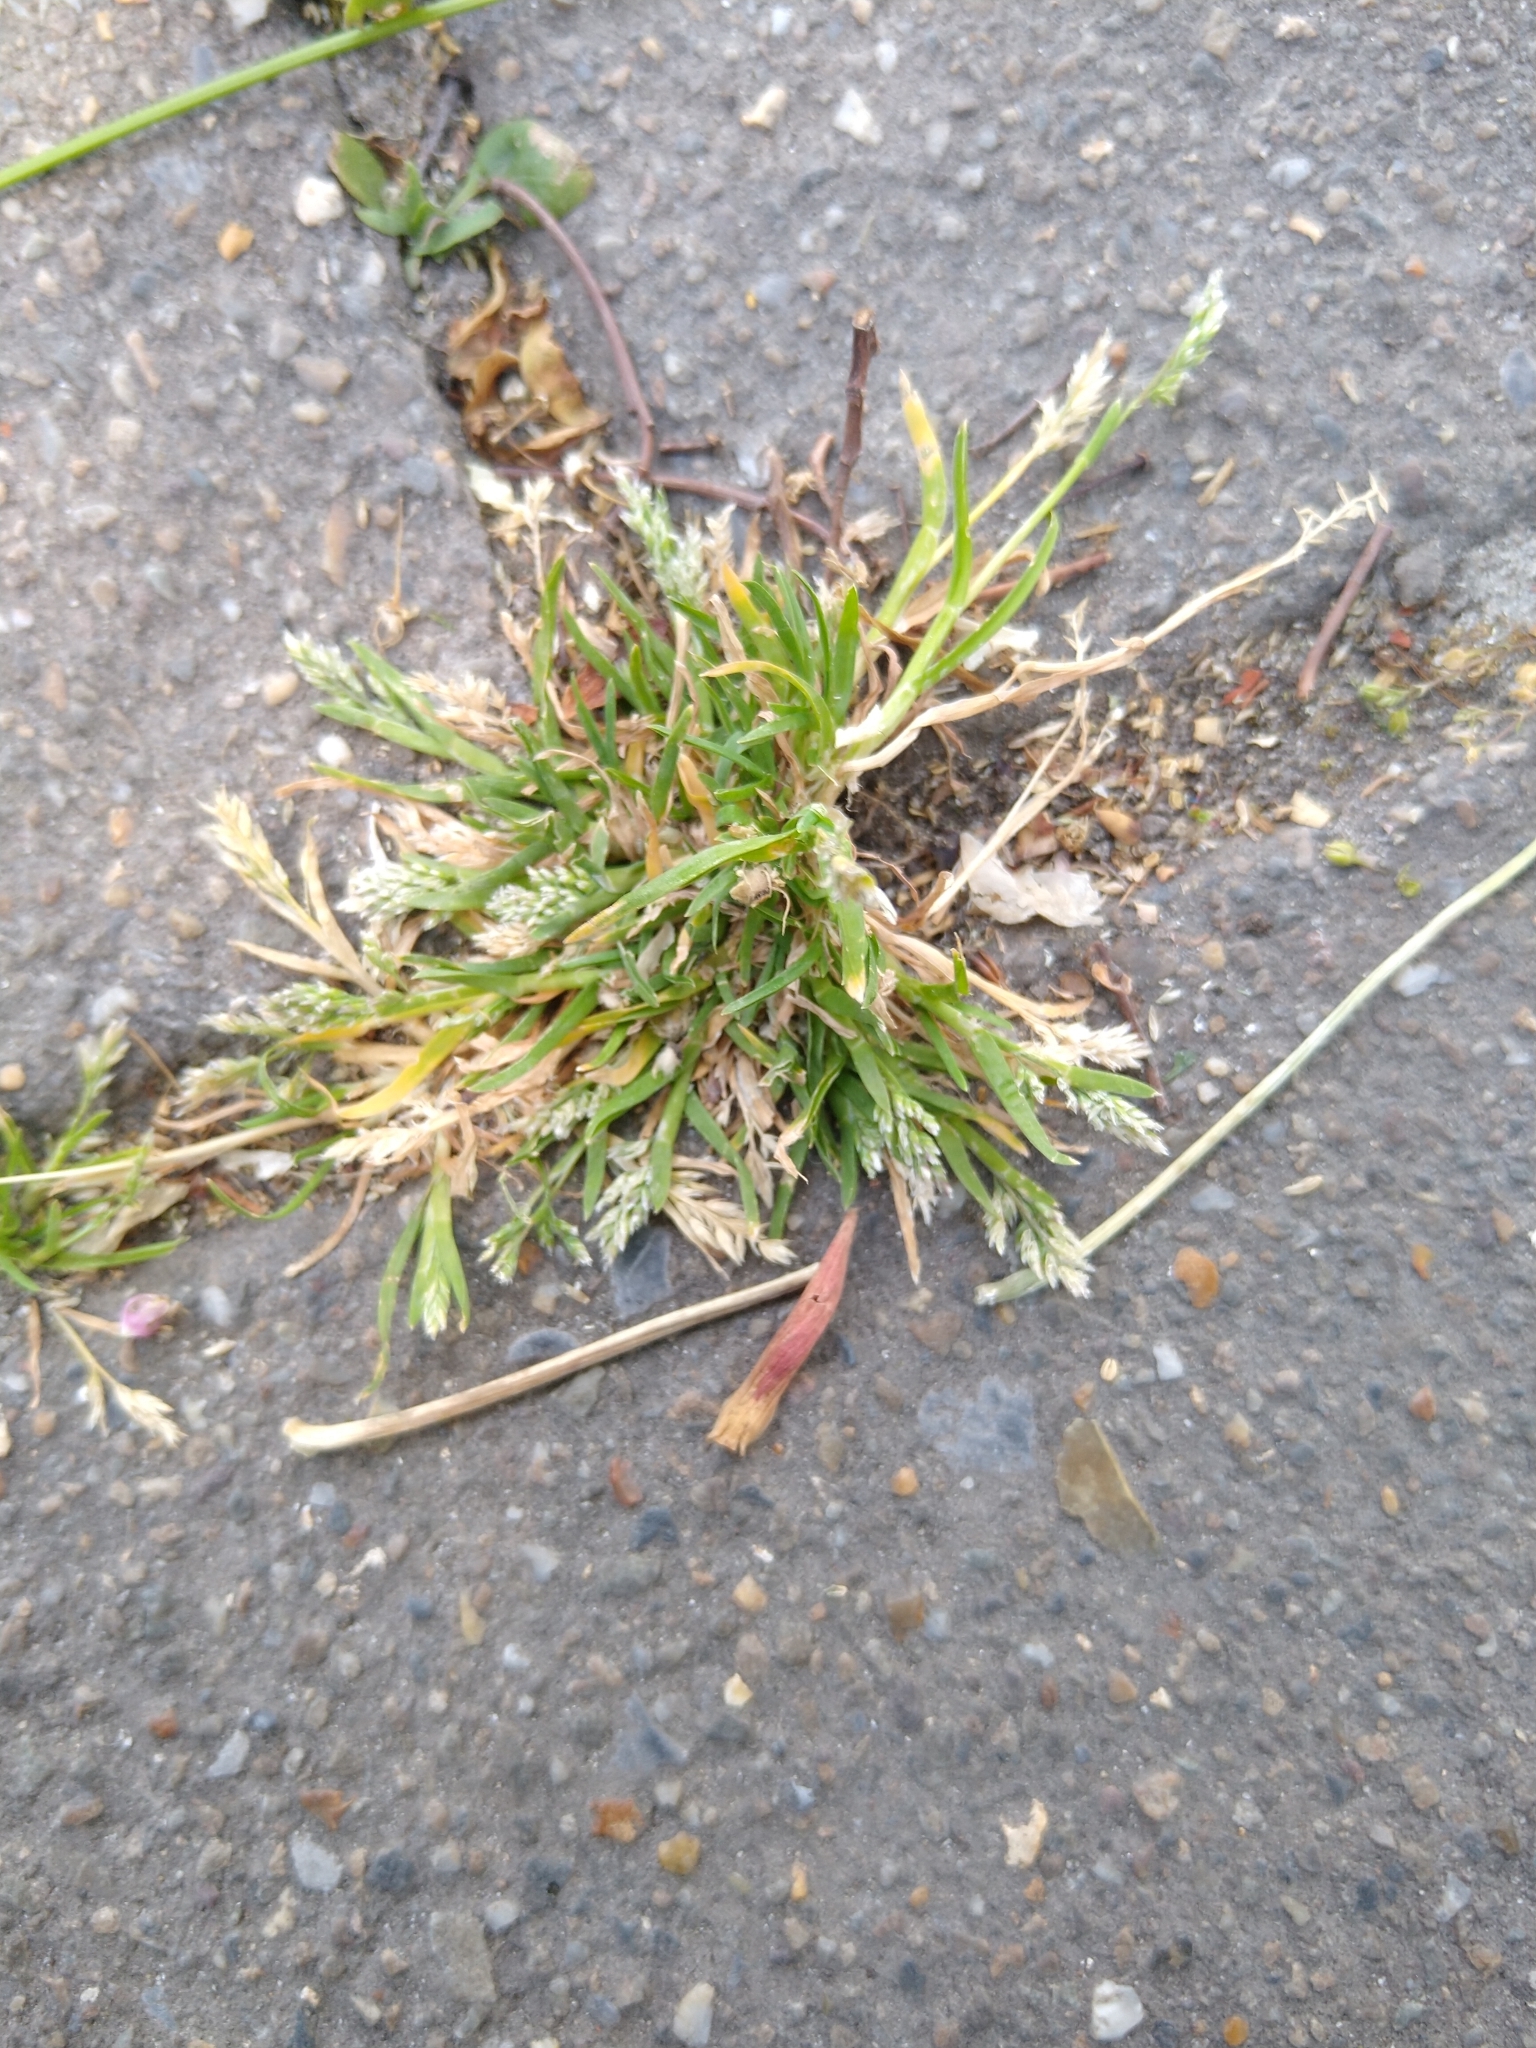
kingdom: Plantae
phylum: Tracheophyta
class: Liliopsida
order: Poales
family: Poaceae
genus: Poa
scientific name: Poa annua
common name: Annual bluegrass
